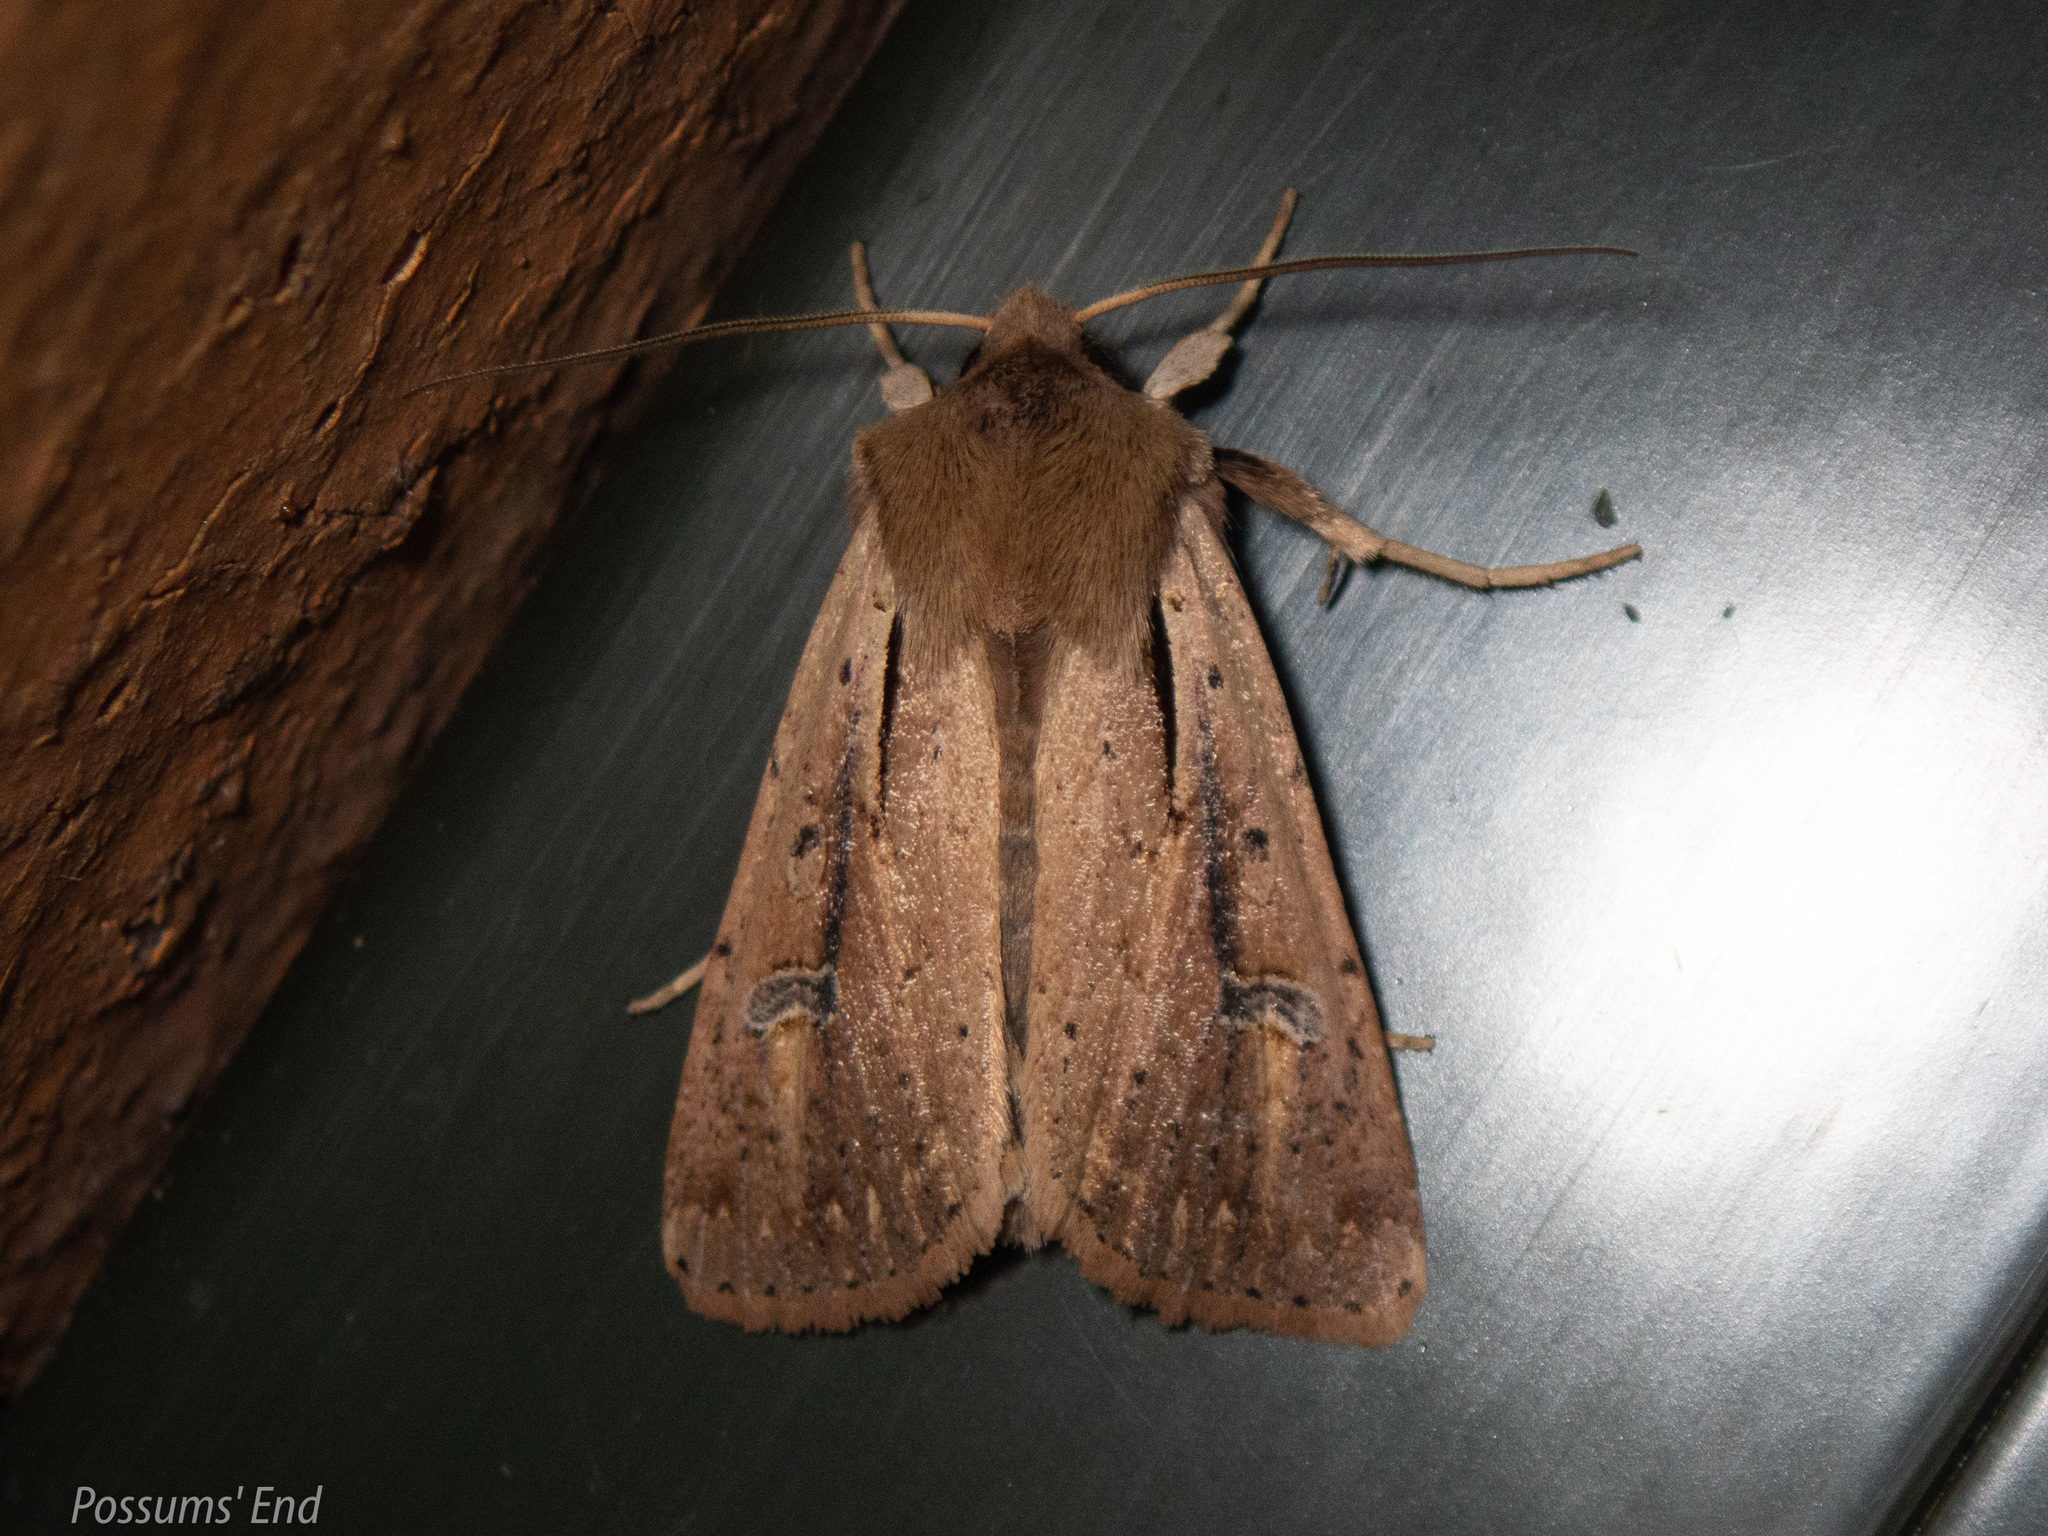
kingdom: Animalia
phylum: Arthropoda
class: Insecta
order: Lepidoptera
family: Noctuidae
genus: Ichneutica
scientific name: Ichneutica atristriga
